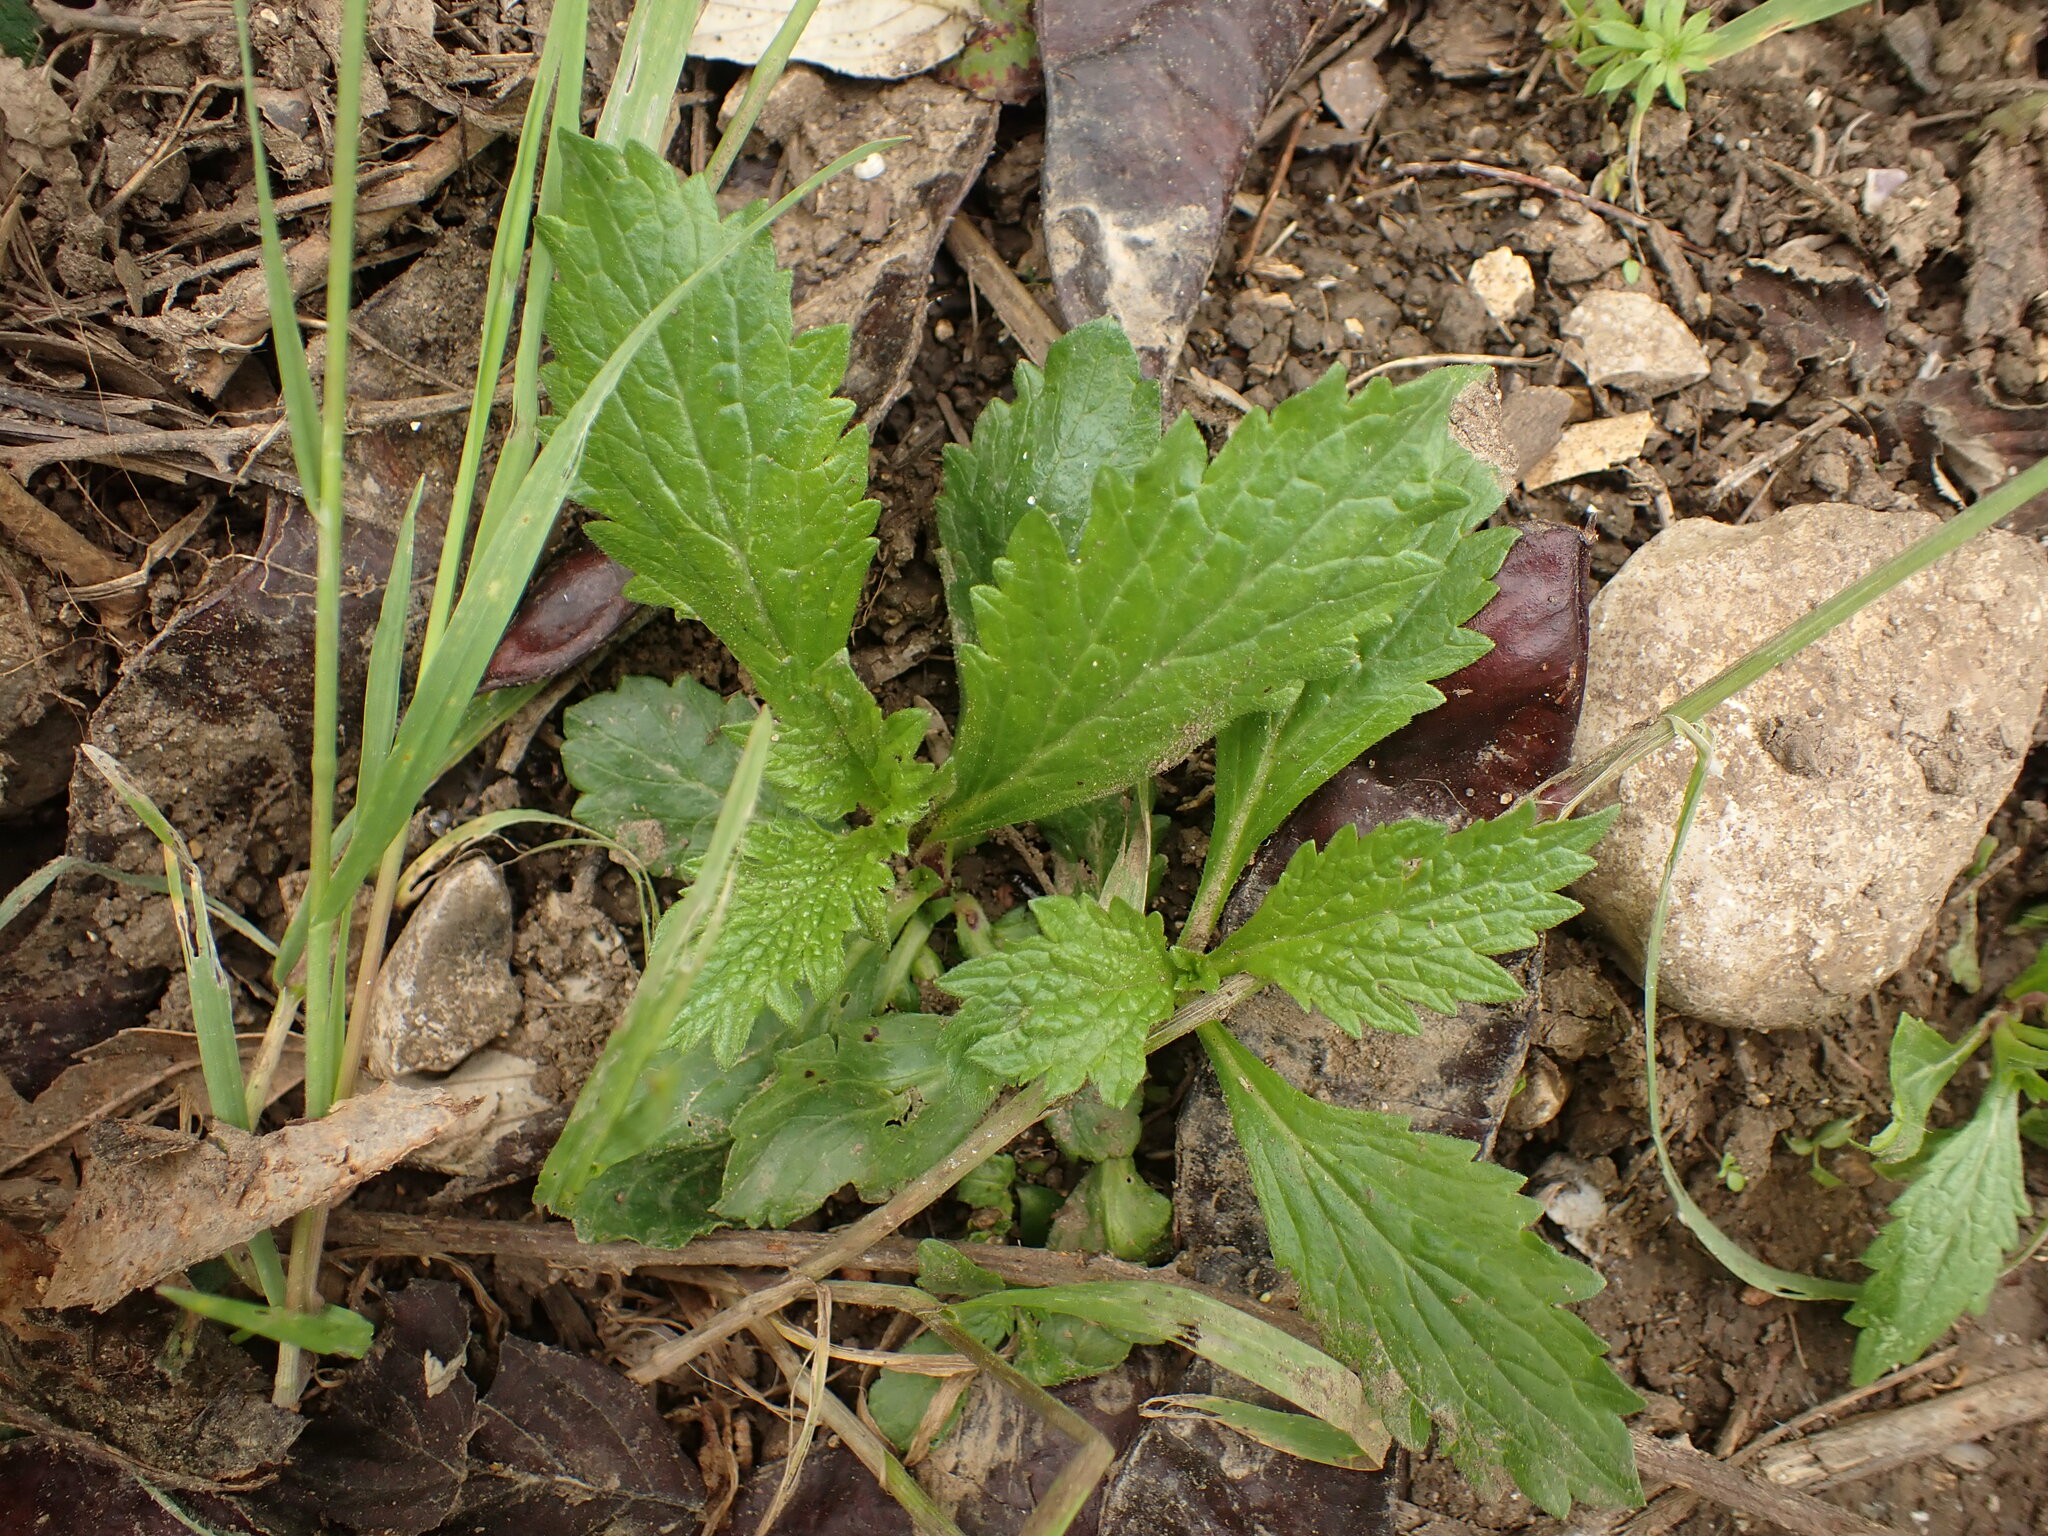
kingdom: Plantae
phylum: Tracheophyta
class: Magnoliopsida
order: Lamiales
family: Verbenaceae
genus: Verbena
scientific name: Verbena officinalis
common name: Vervain
